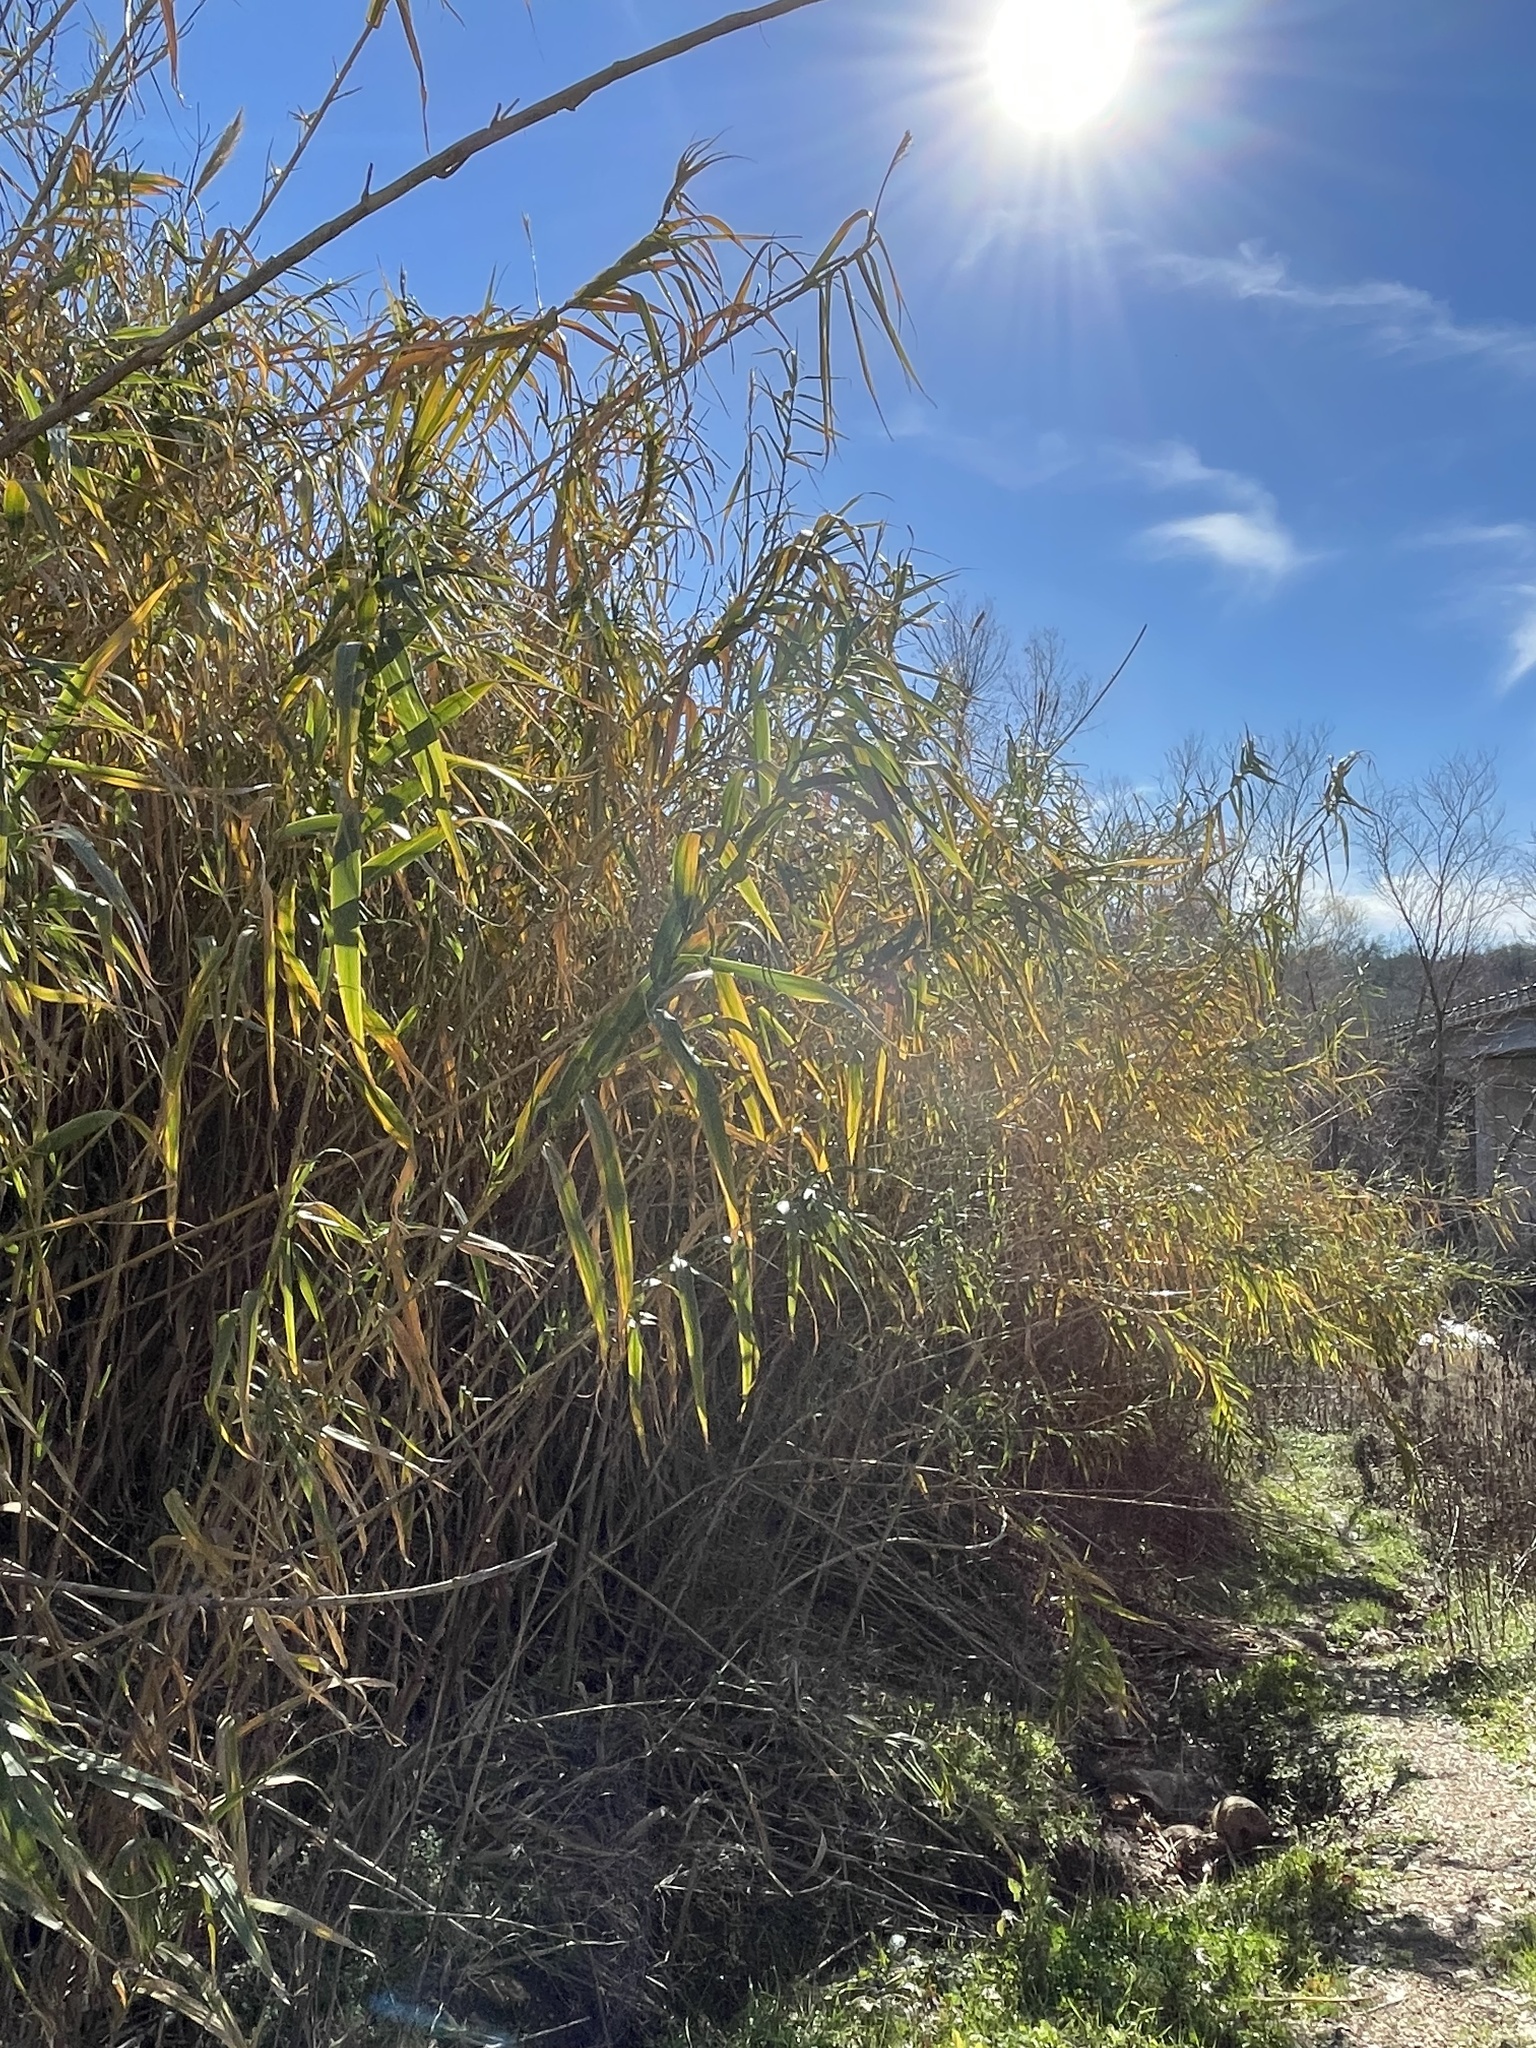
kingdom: Plantae
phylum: Tracheophyta
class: Liliopsida
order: Poales
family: Poaceae
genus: Arundo
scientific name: Arundo donax
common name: Giant reed
